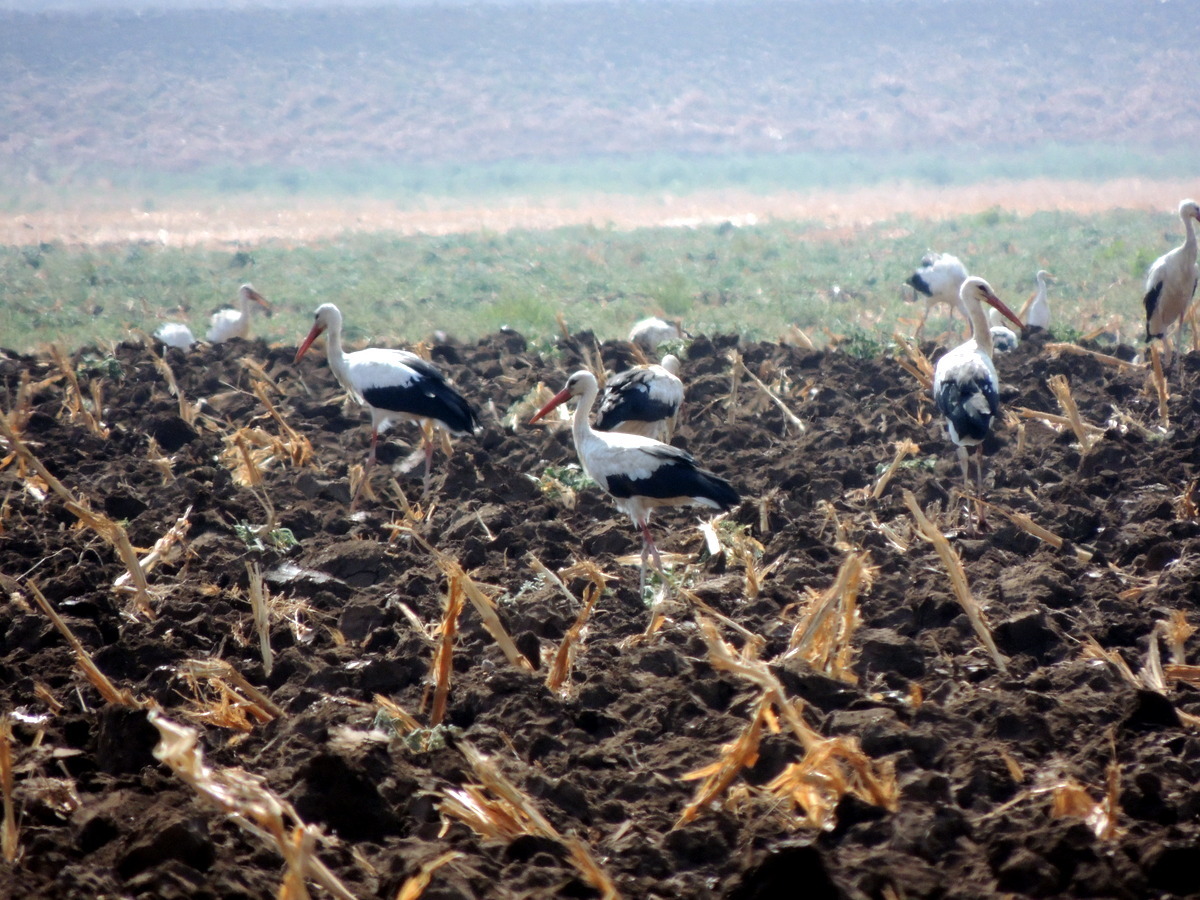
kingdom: Animalia
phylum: Chordata
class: Aves
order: Ciconiiformes
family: Ciconiidae
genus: Ciconia
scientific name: Ciconia ciconia
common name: White stork
